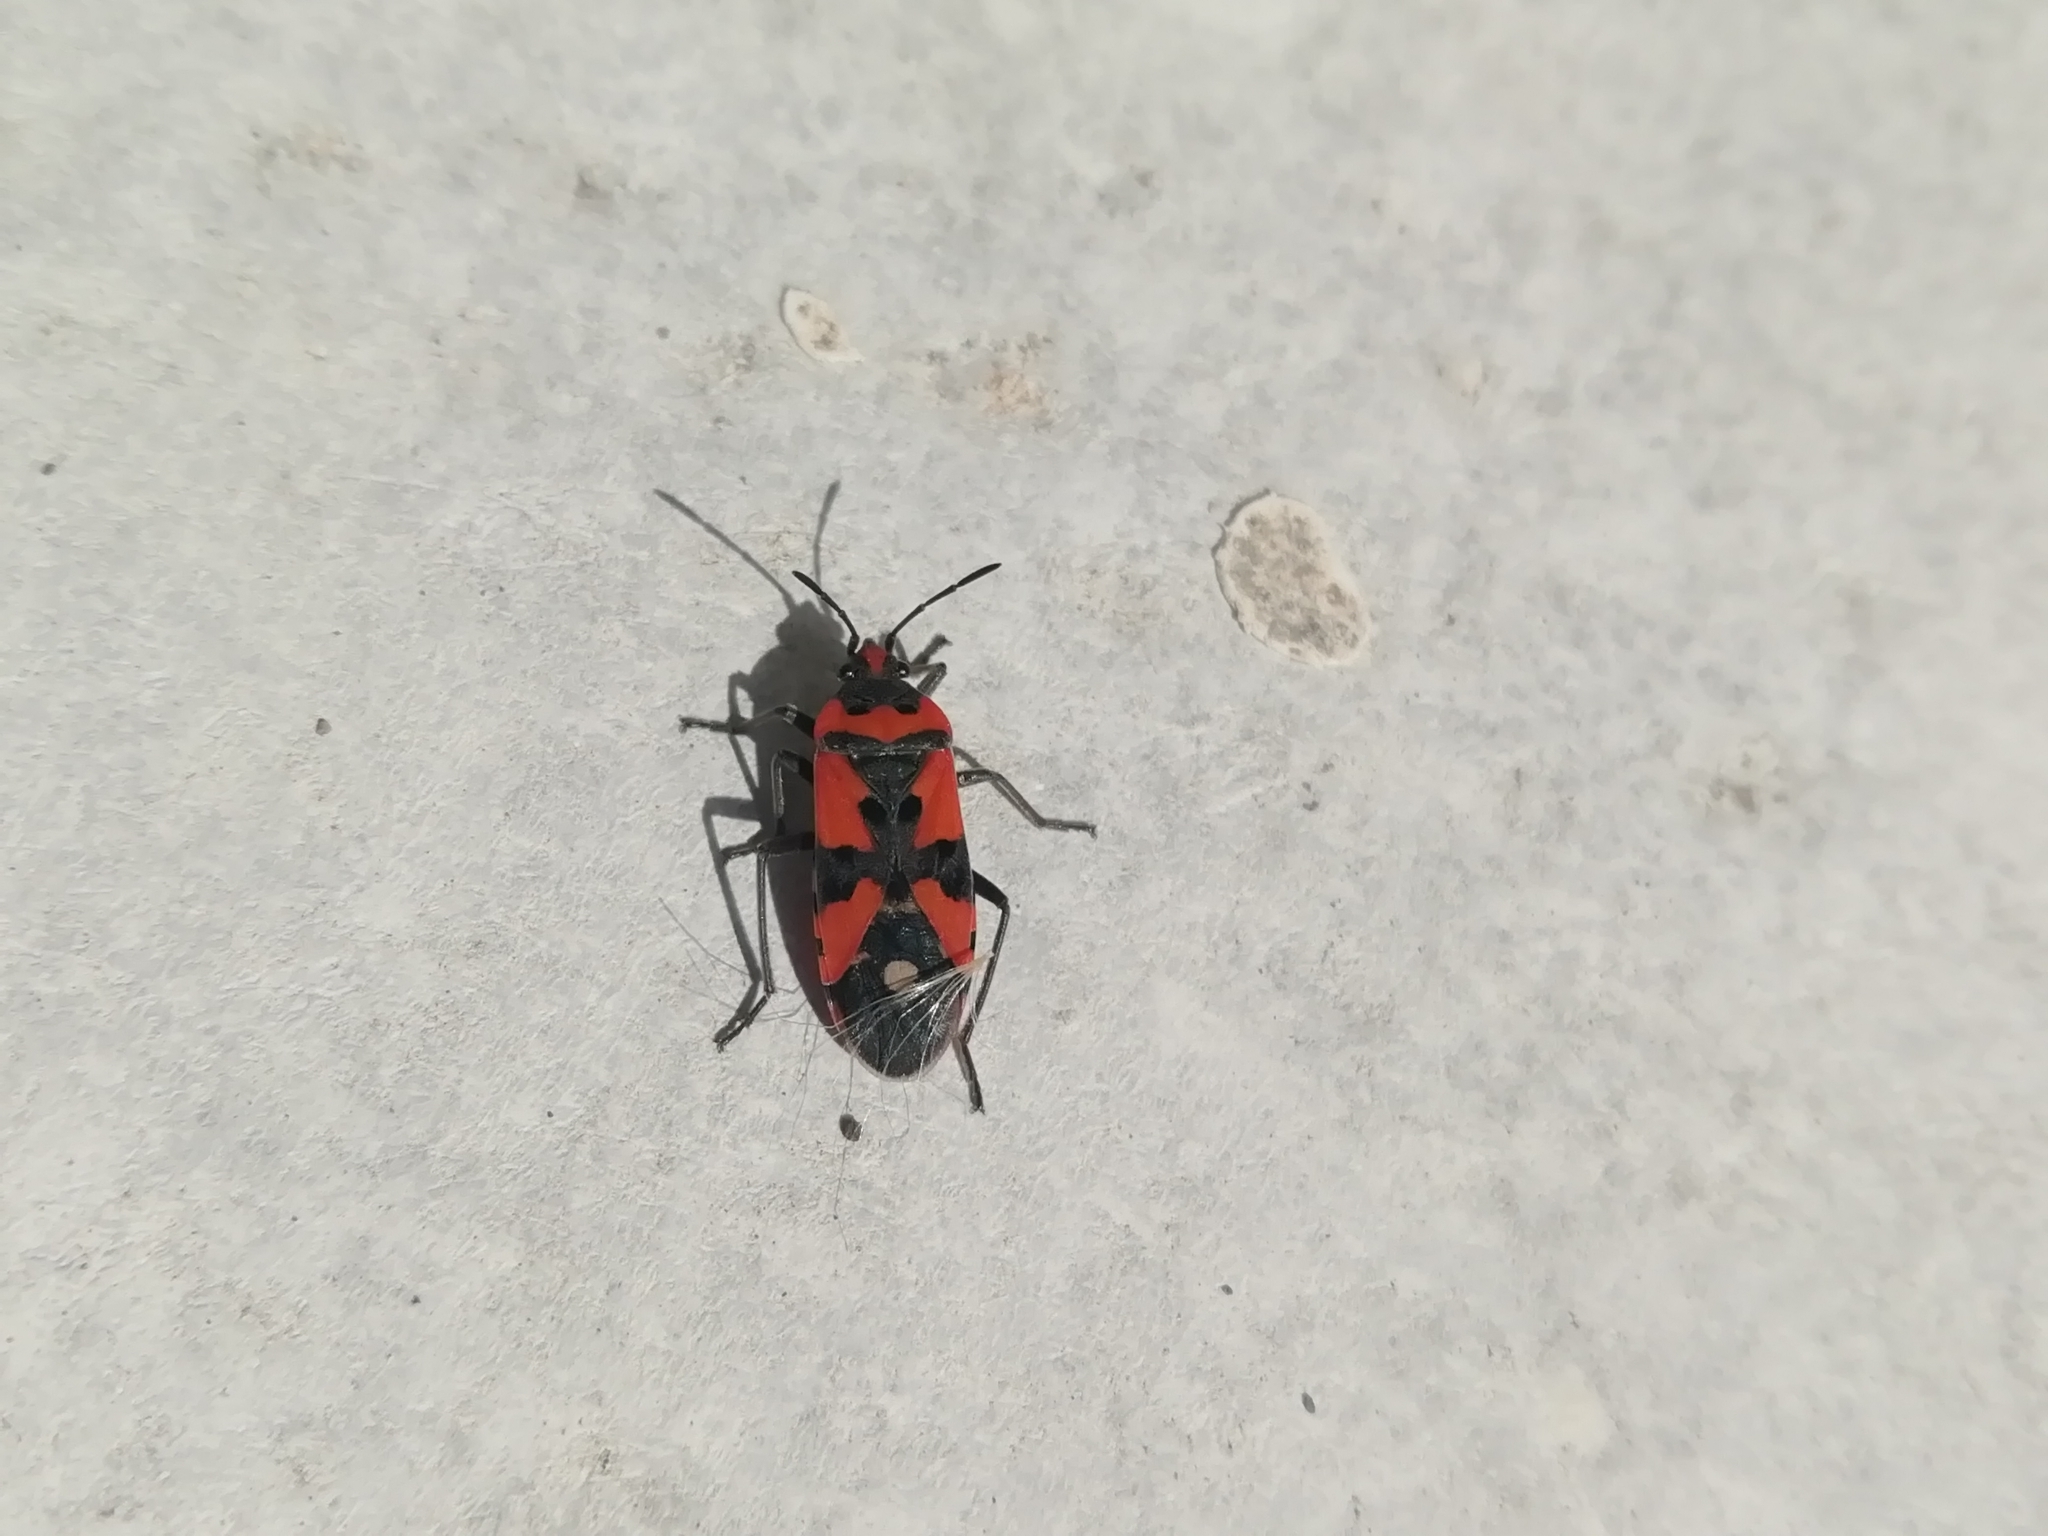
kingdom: Animalia
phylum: Arthropoda
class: Insecta
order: Hemiptera
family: Lygaeidae
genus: Lygaeus
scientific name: Lygaeus equestris
